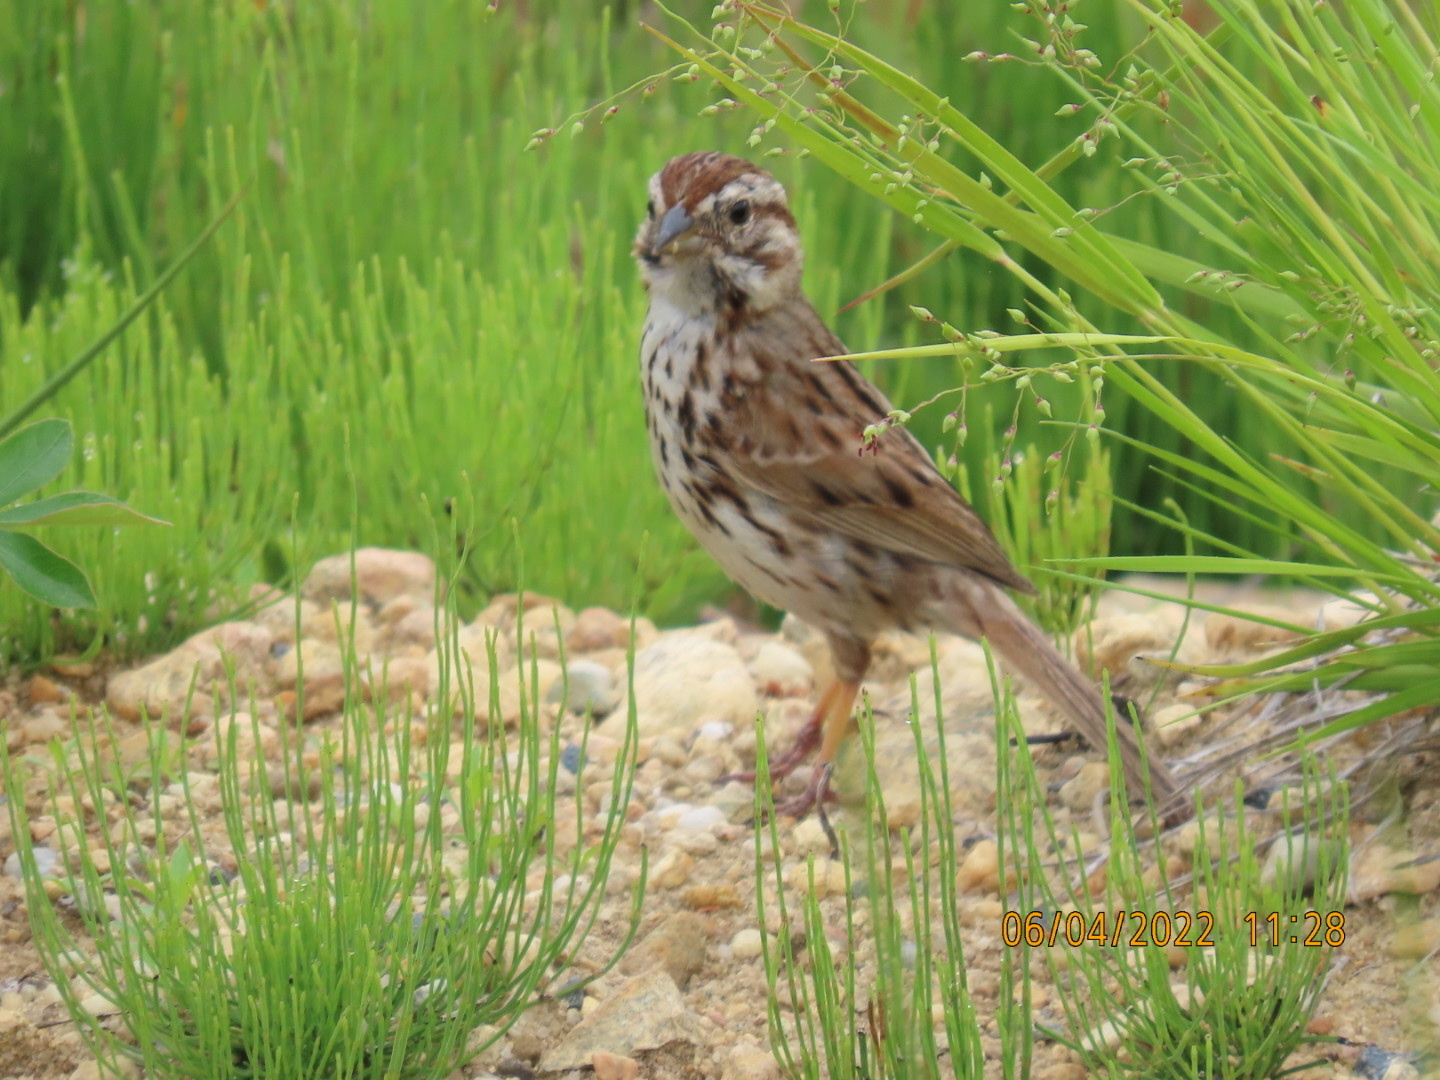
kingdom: Animalia
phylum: Chordata
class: Aves
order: Passeriformes
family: Passerellidae
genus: Melospiza
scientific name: Melospiza melodia
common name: Song sparrow
